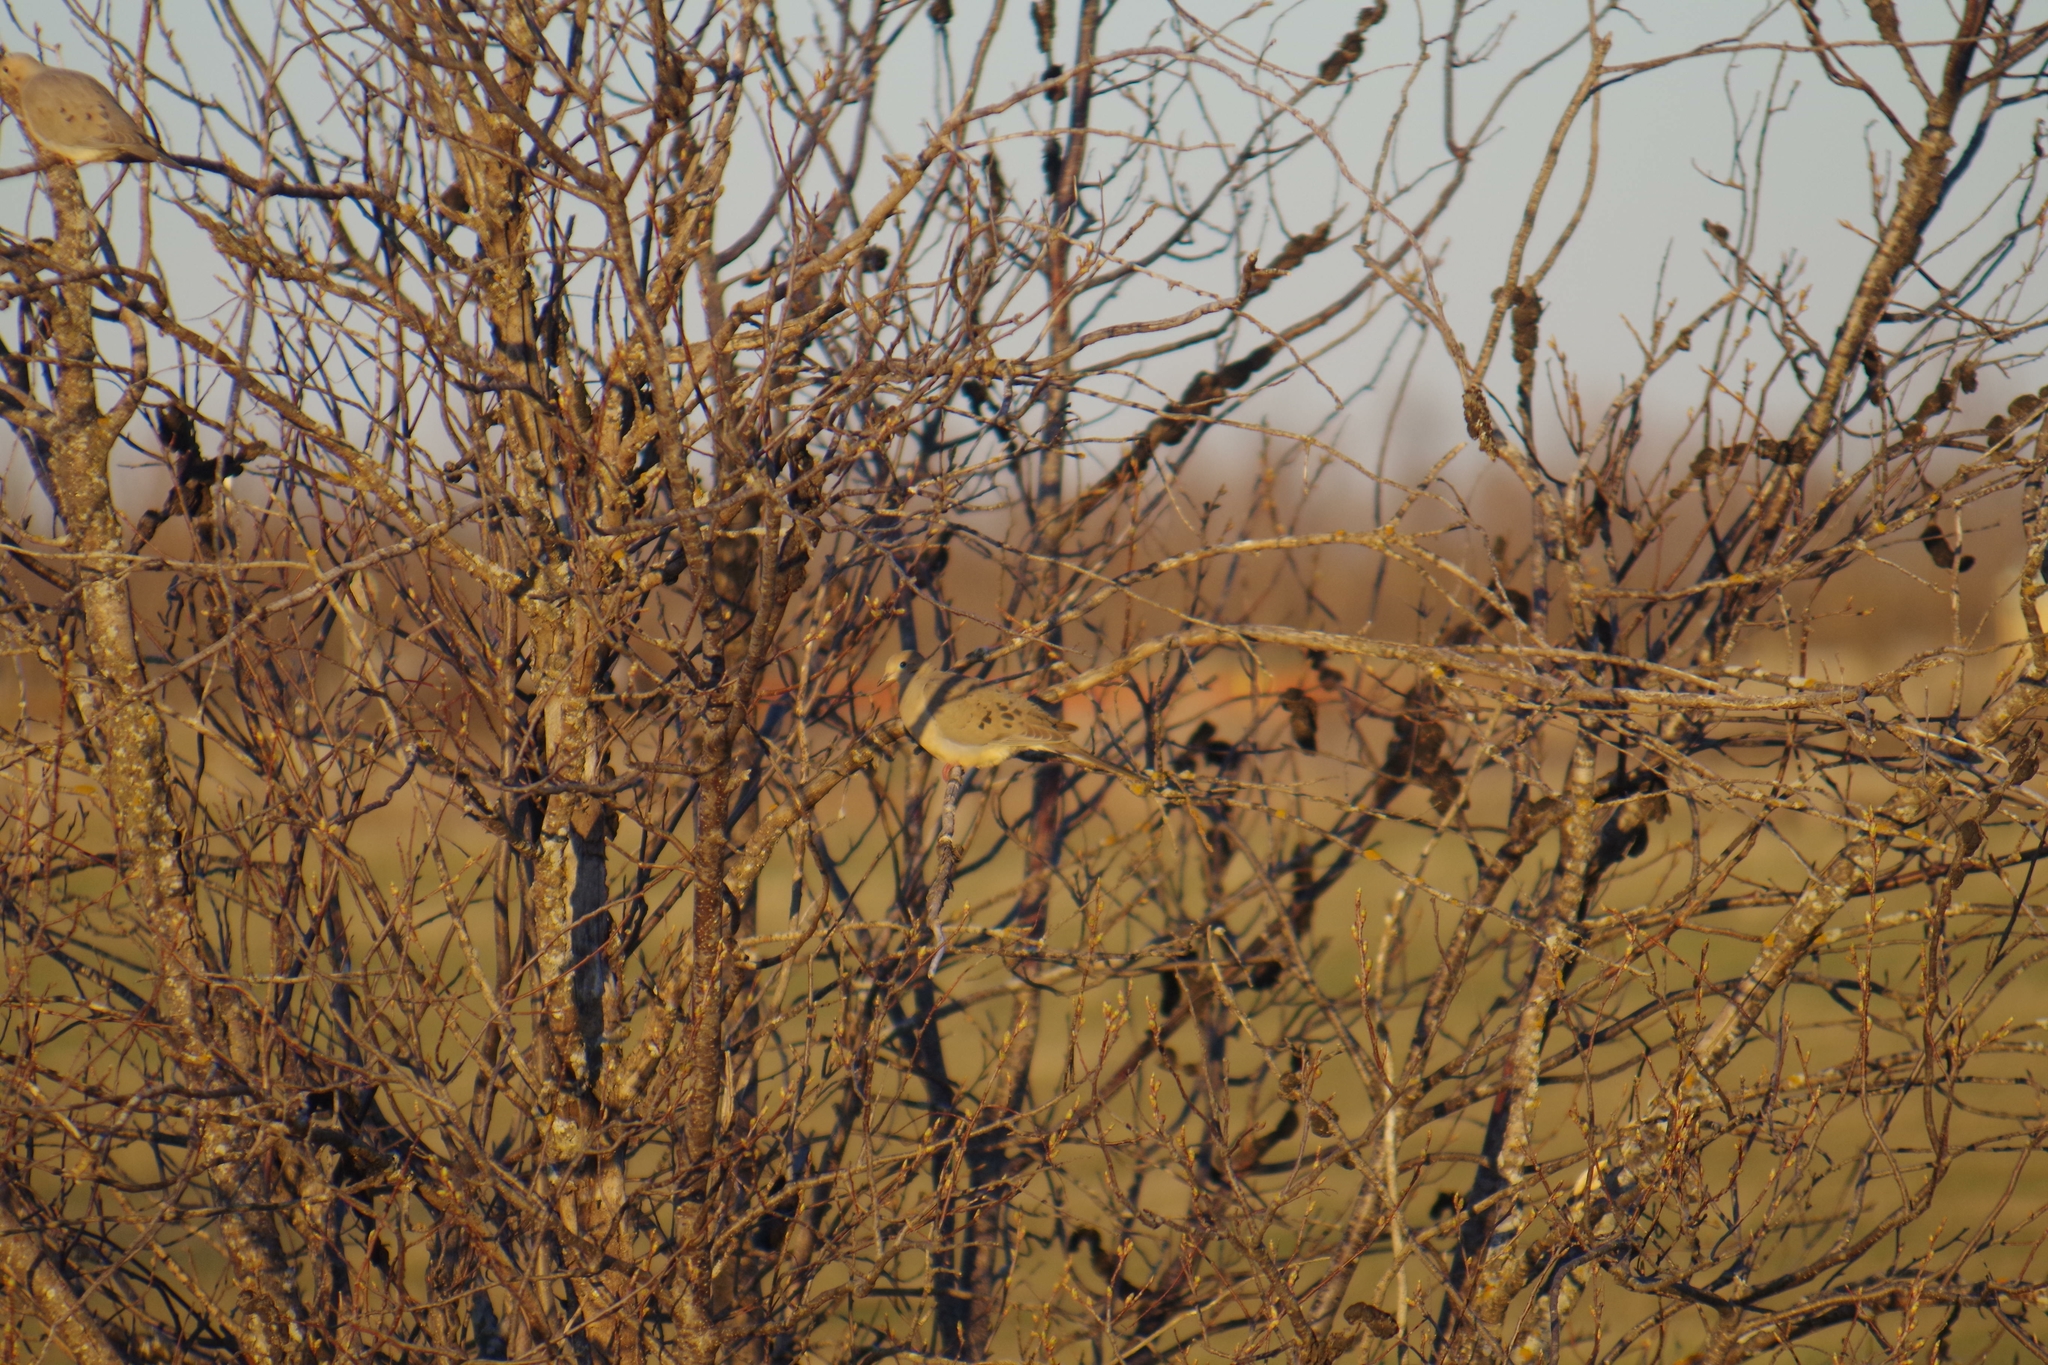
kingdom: Fungi
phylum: Ascomycota
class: Dothideomycetes
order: Venturiales
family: Venturiaceae
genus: Apiosporina
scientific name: Apiosporina morbosa
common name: Black knot
